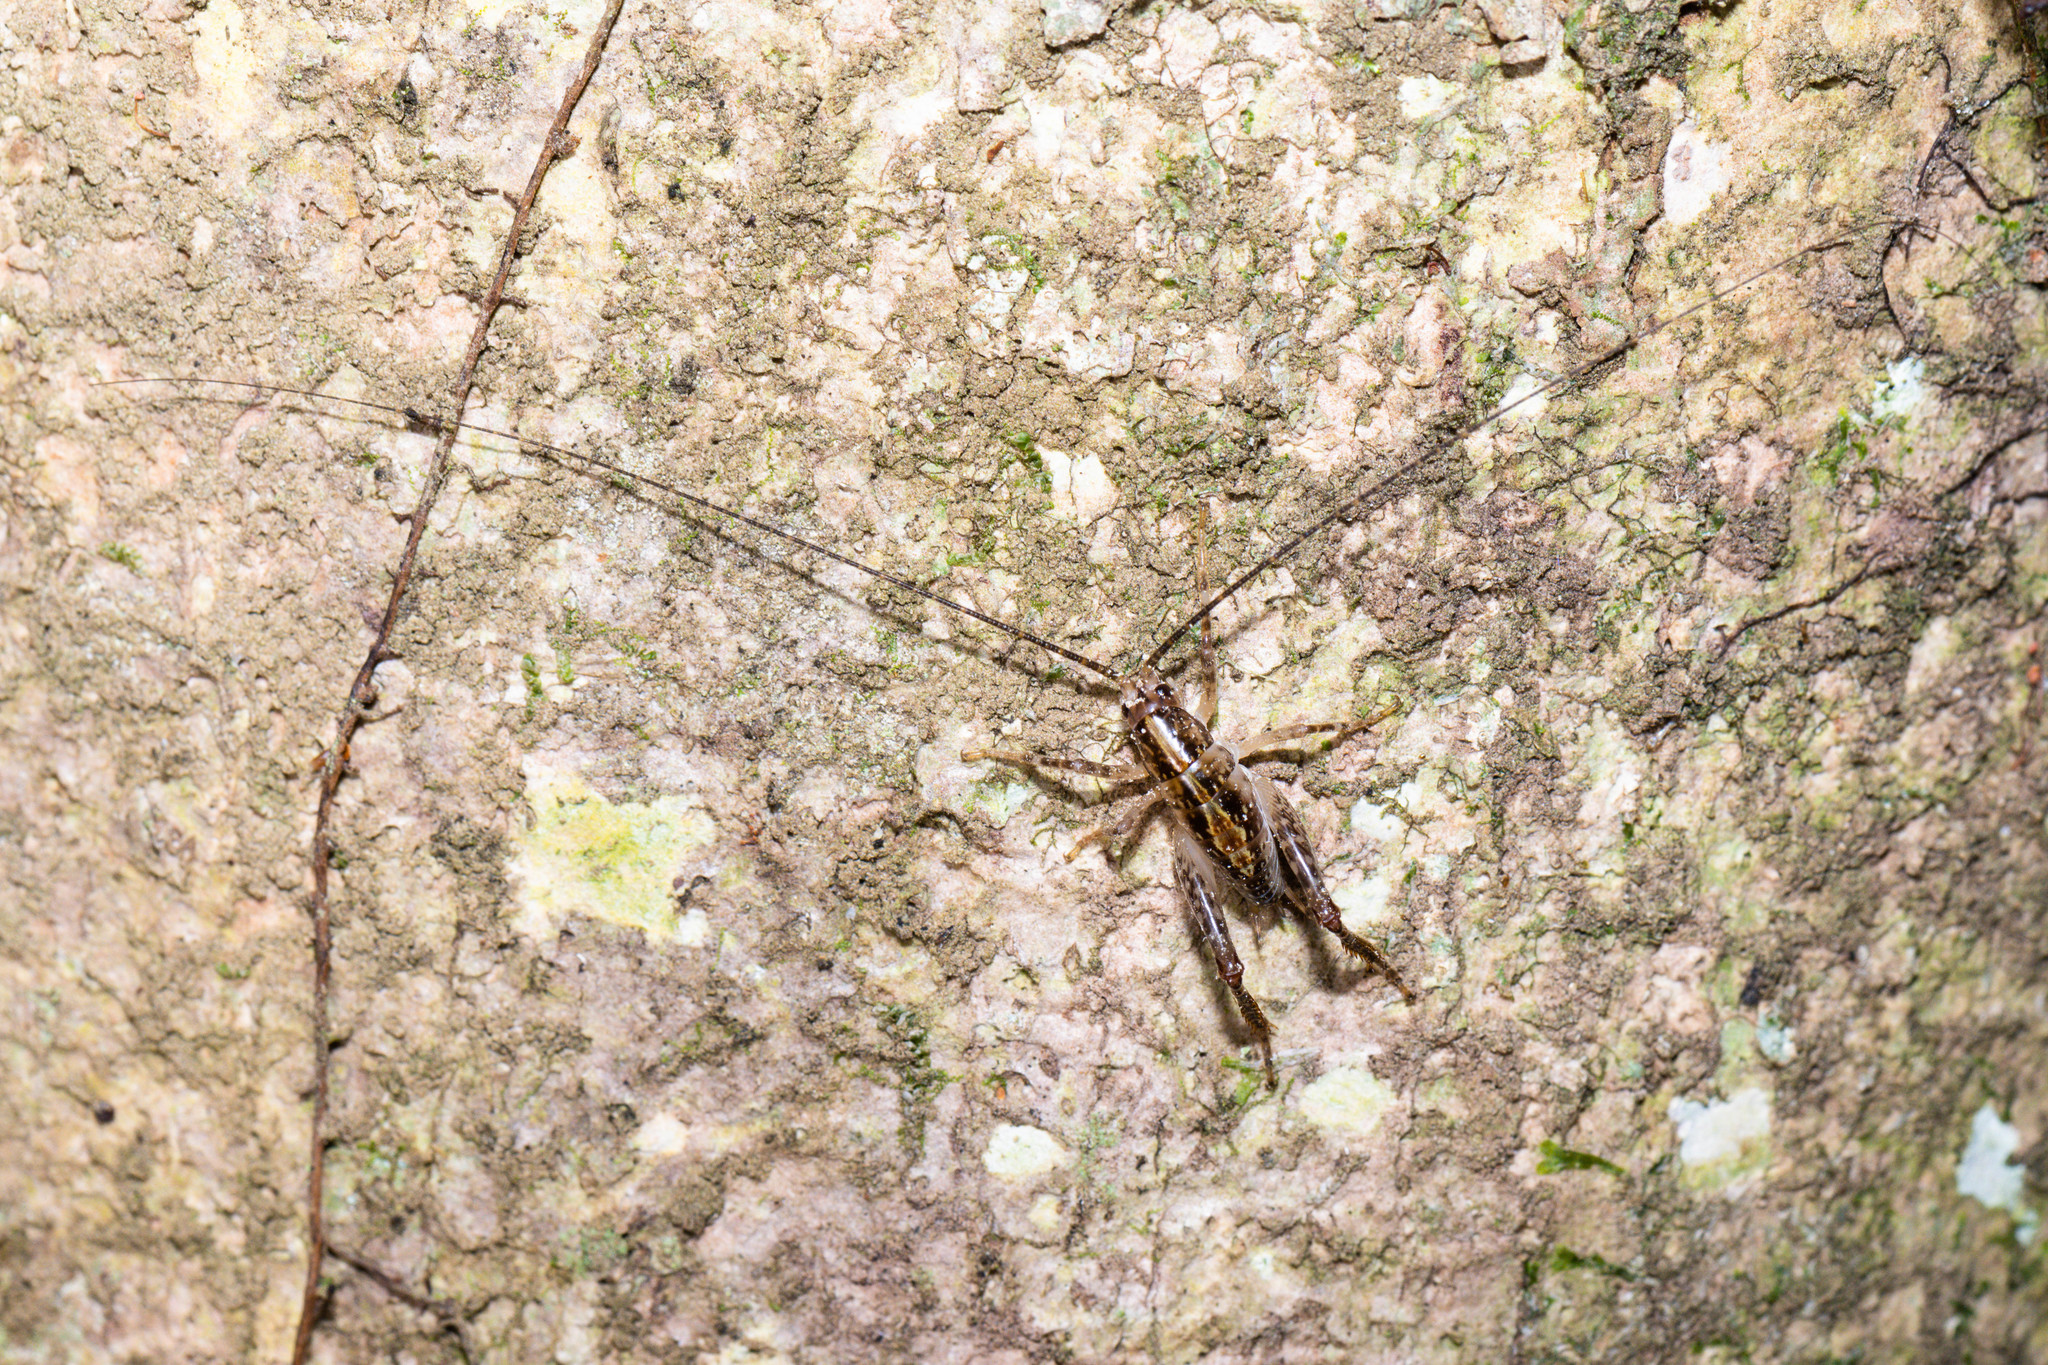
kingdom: Animalia
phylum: Arthropoda
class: Insecta
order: Orthoptera
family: Rhaphidophoridae
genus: Talitropsis
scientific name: Talitropsis sedilloti
